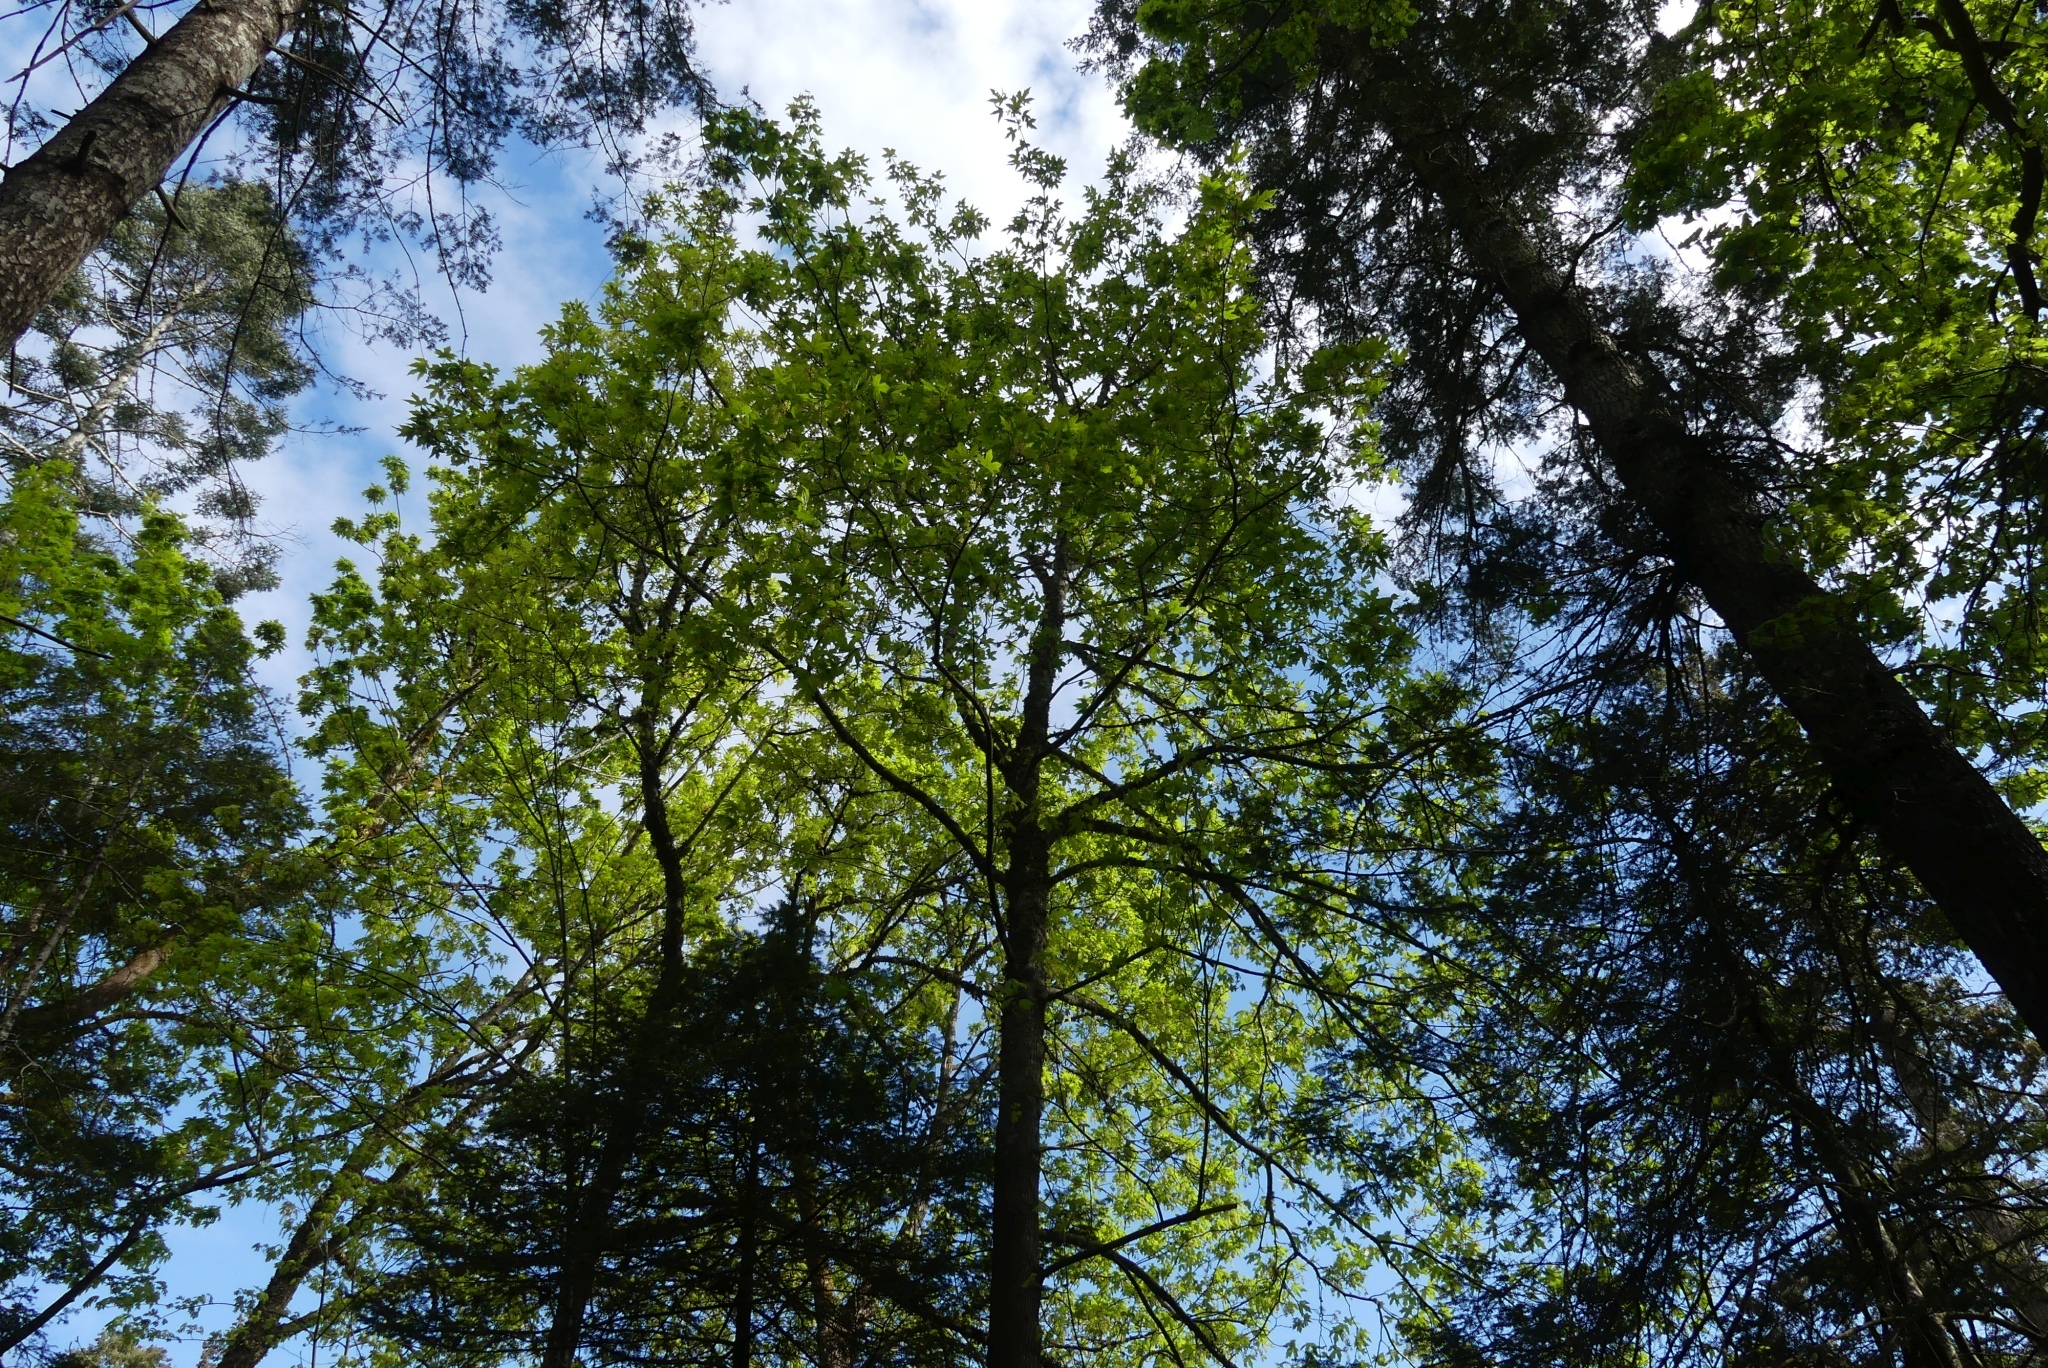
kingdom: Plantae
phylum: Tracheophyta
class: Magnoliopsida
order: Sapindales
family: Sapindaceae
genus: Acer
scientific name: Acer macrophyllum
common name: Oregon maple
